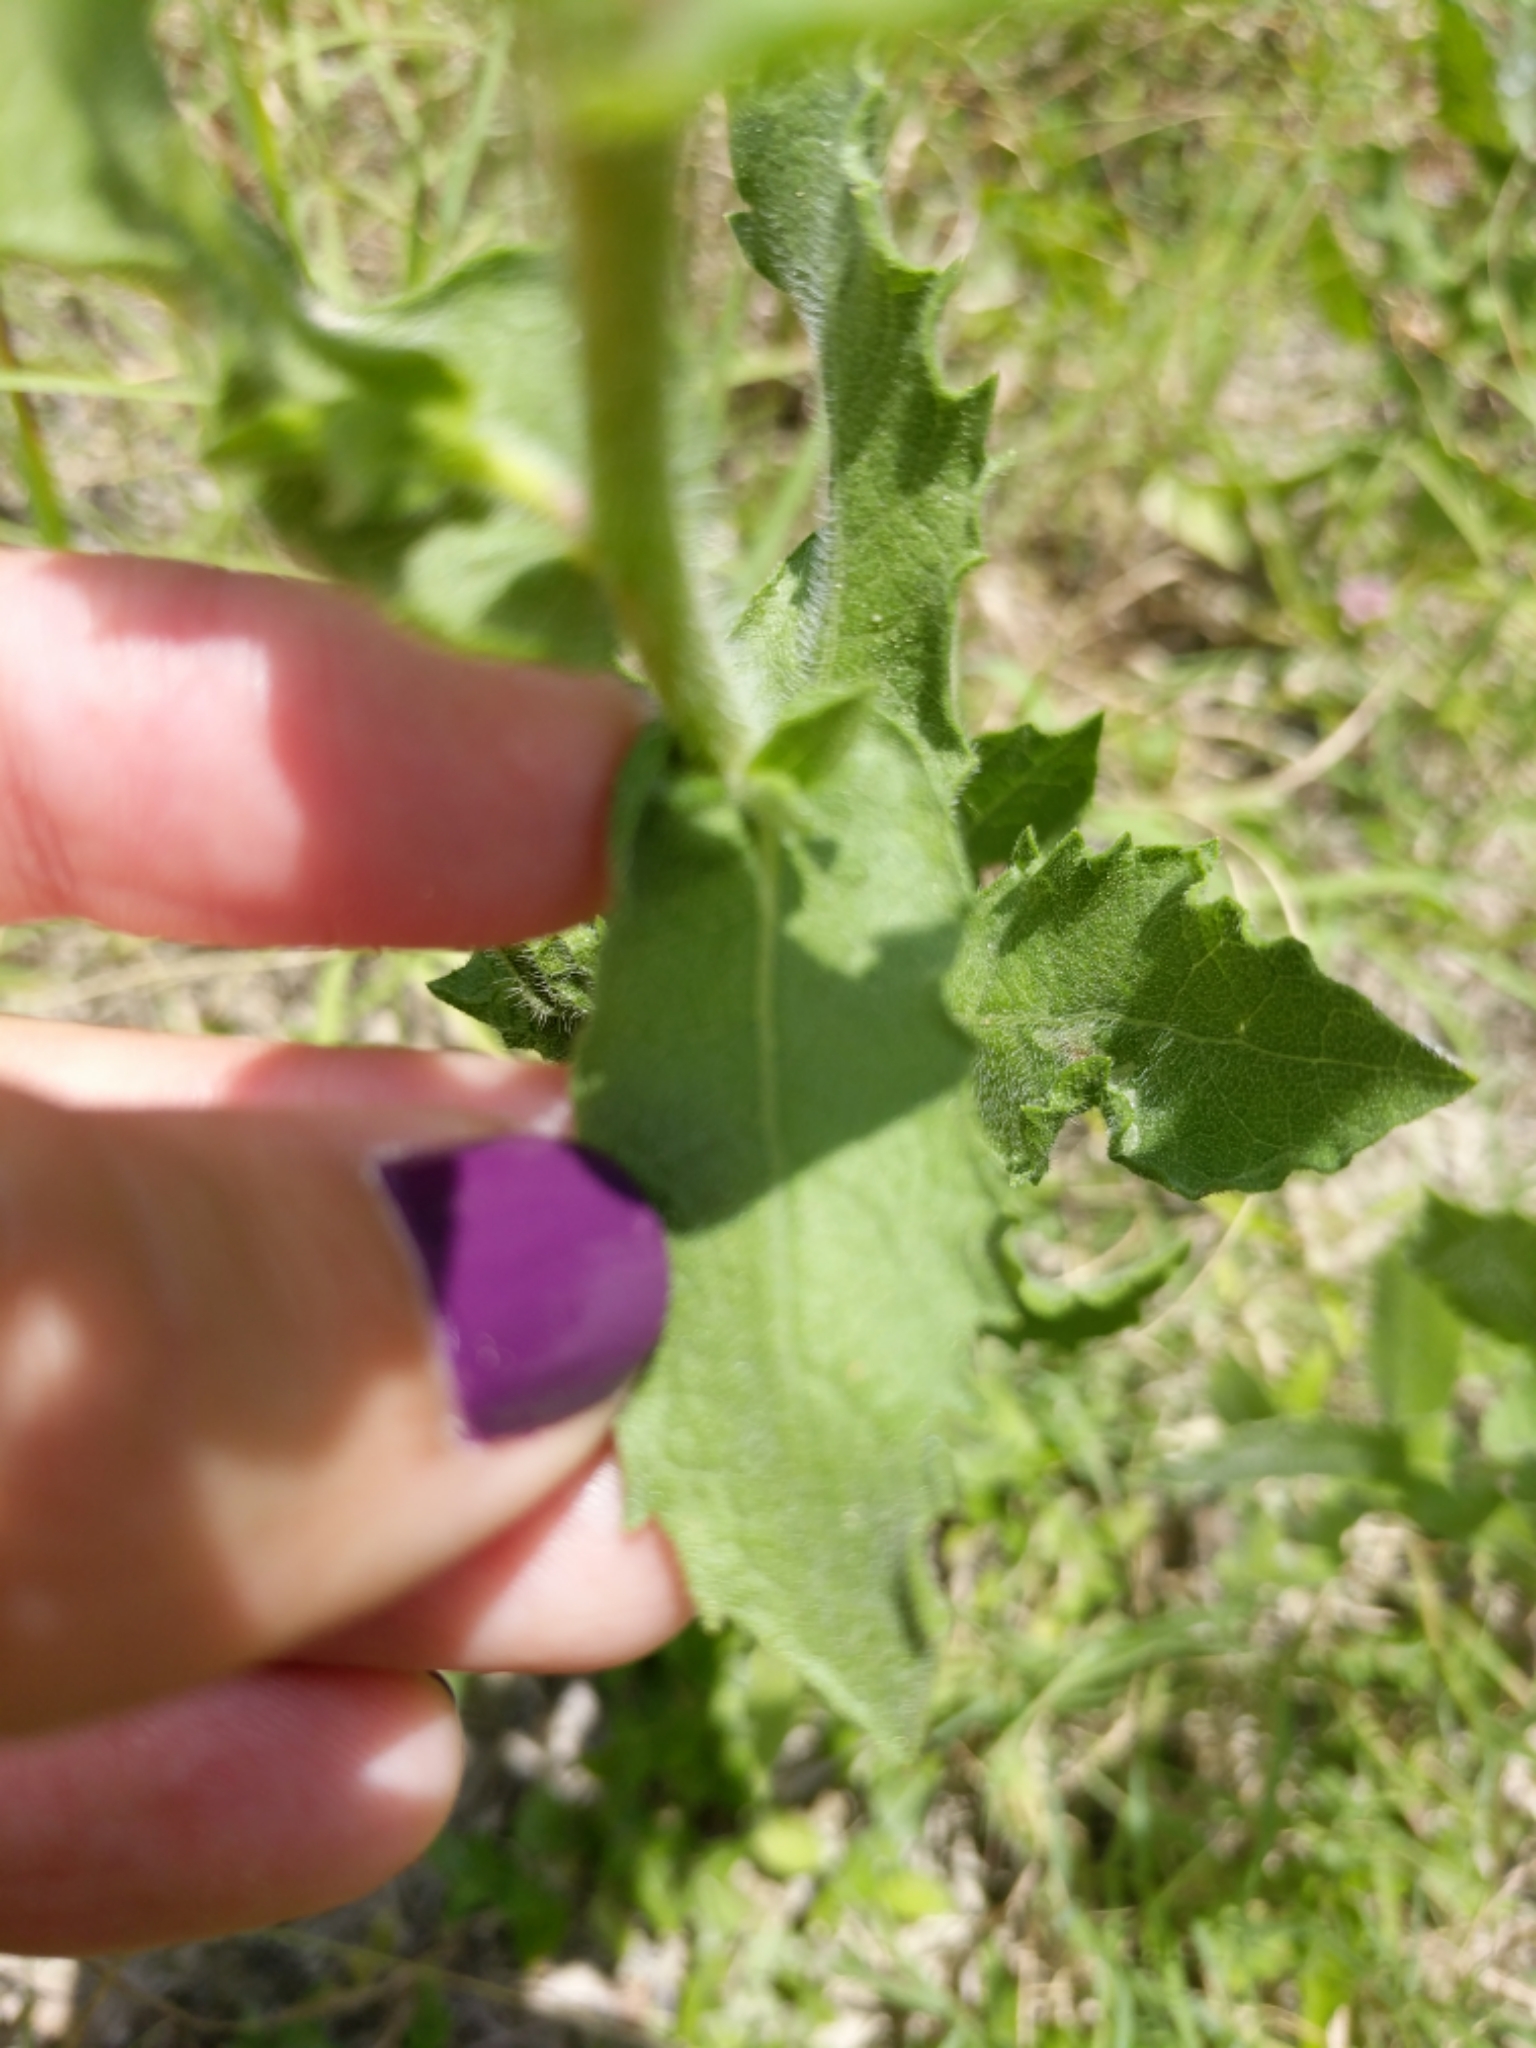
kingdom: Plantae
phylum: Tracheophyta
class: Magnoliopsida
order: Asterales
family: Asteraceae
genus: Heterotheca
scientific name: Heterotheca subaxillaris
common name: Camphorweed
